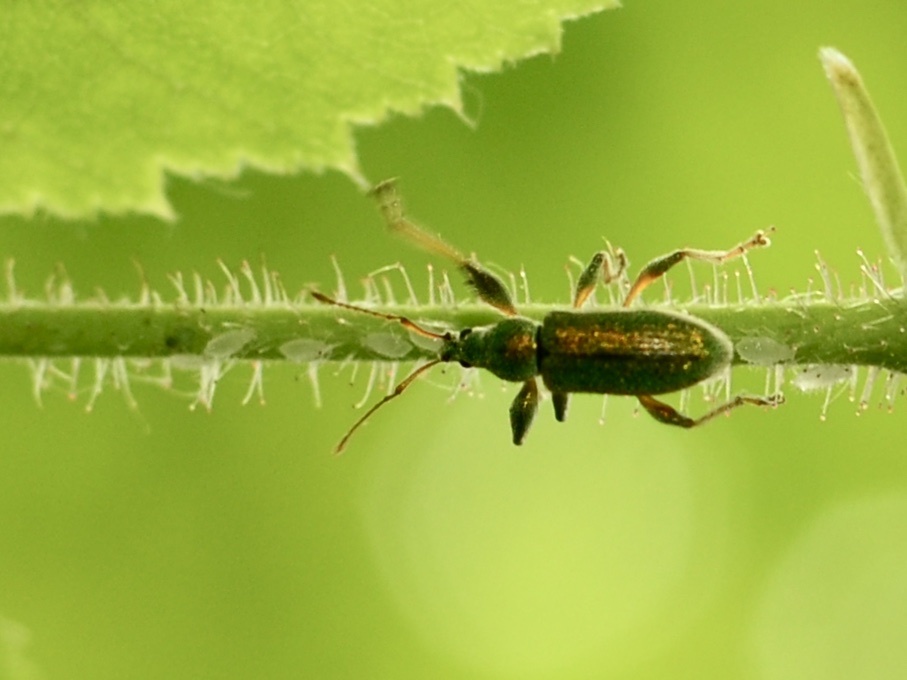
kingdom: Animalia
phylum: Arthropoda
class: Insecta
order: Coleoptera
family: Curculionidae
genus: Phyllobius
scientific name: Phyllobius arborator
